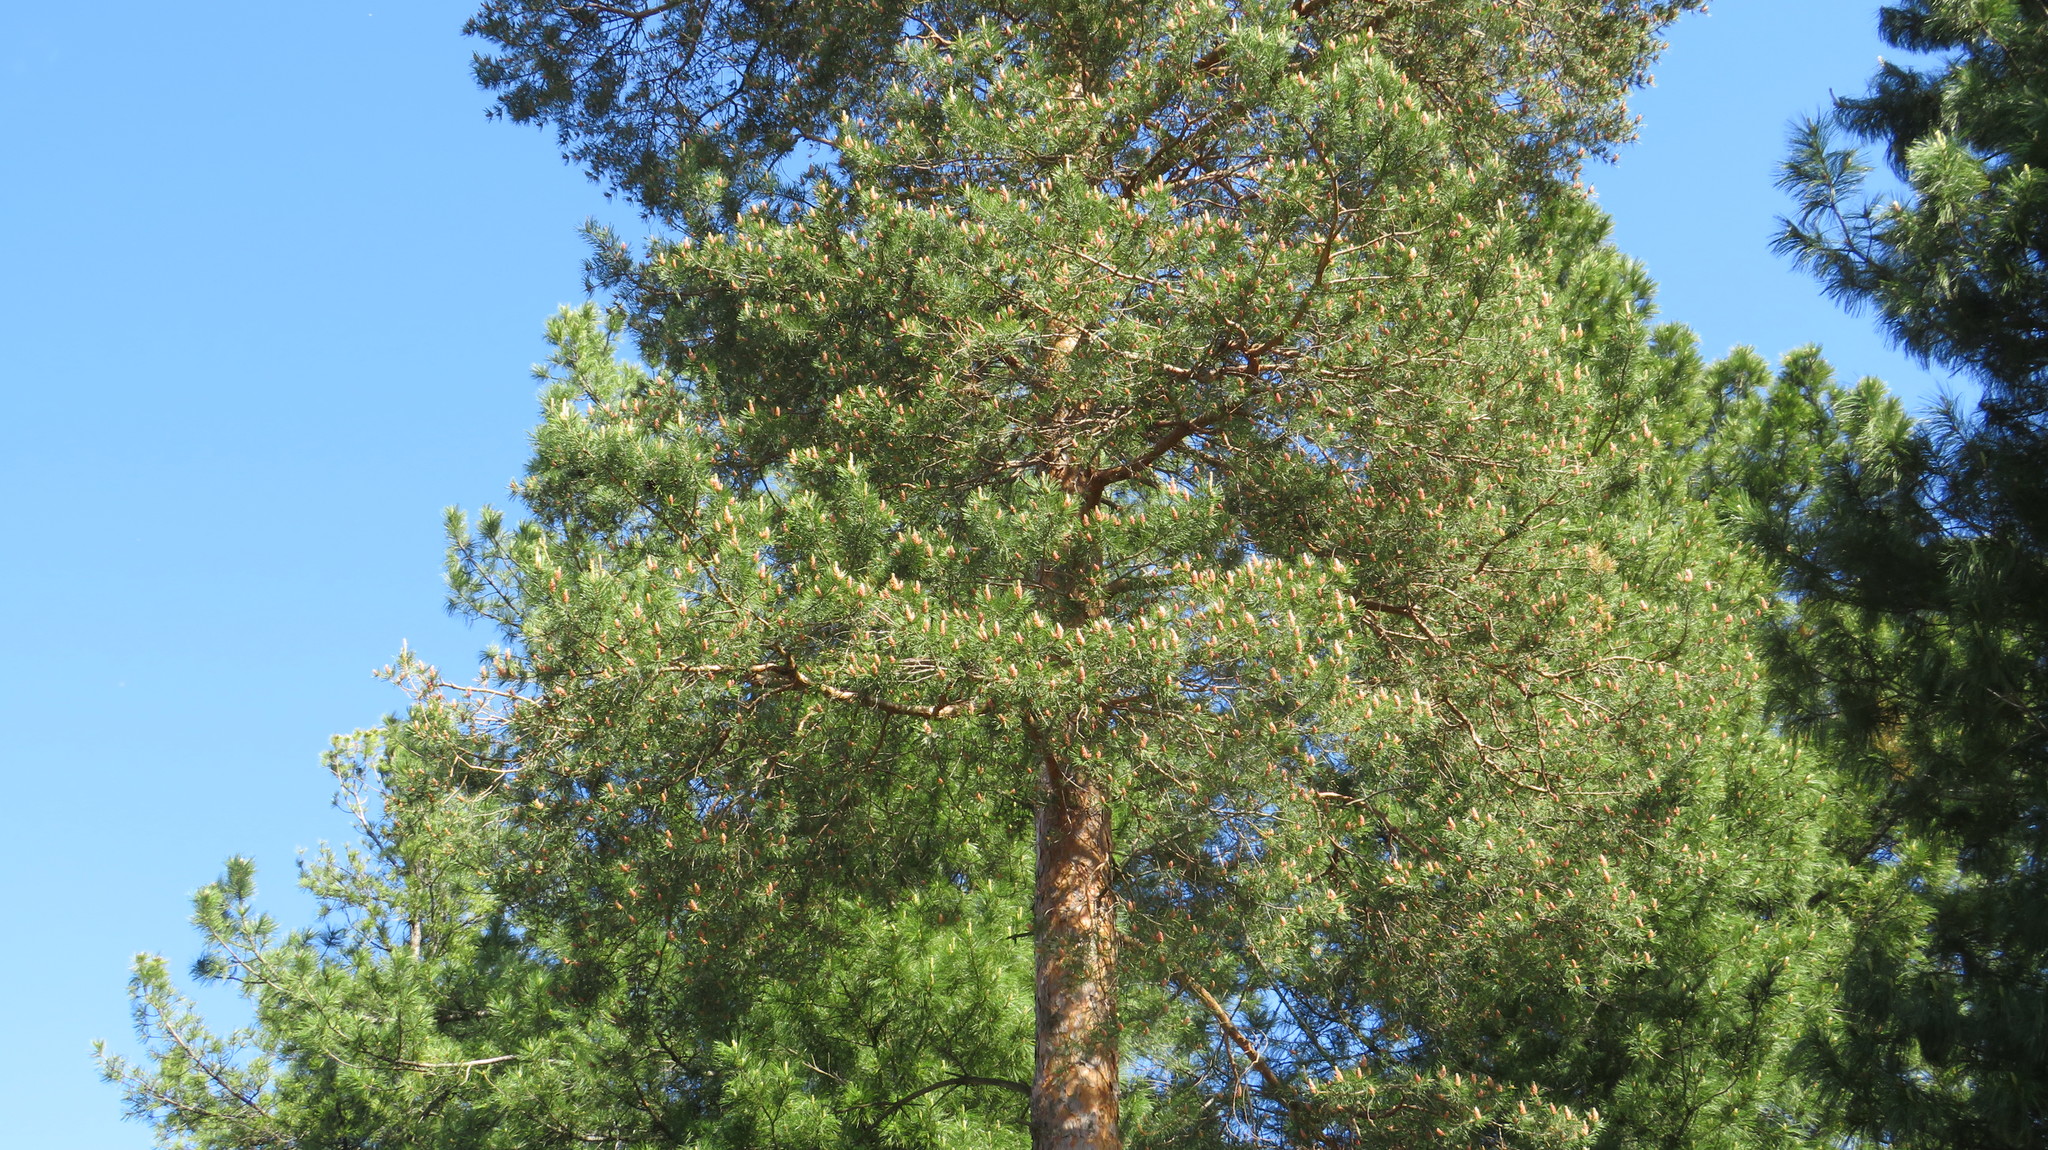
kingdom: Plantae
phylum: Tracheophyta
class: Pinopsida
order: Pinales
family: Pinaceae
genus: Pinus
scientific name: Pinus sylvestris
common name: Scots pine
